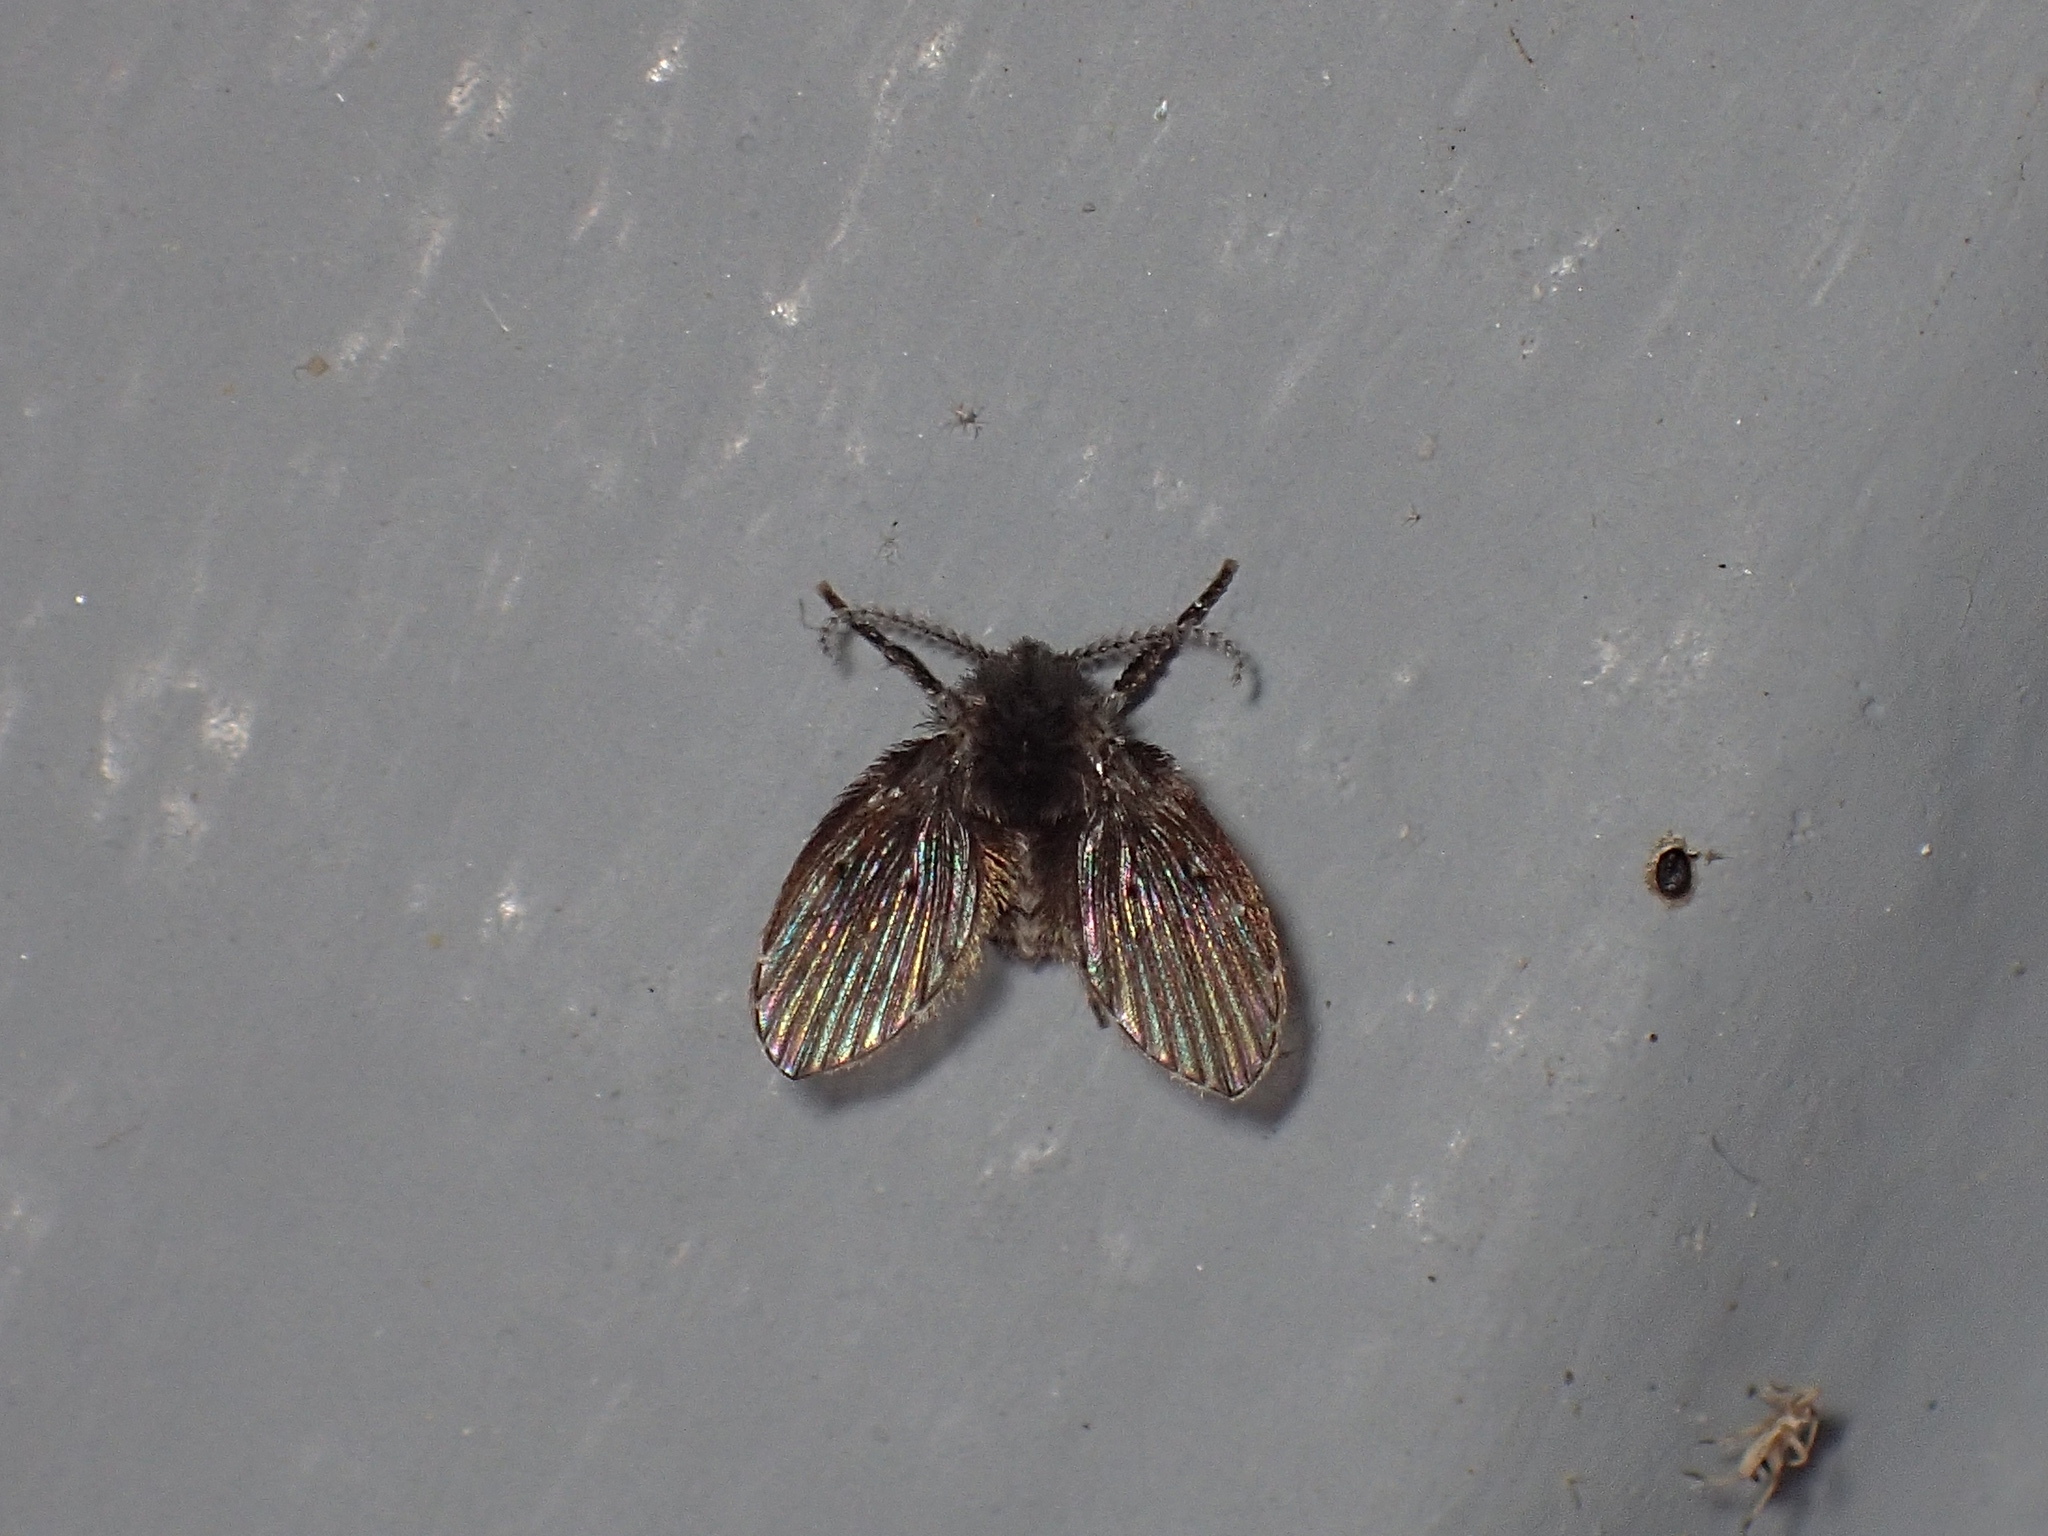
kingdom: Animalia
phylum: Arthropoda
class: Insecta
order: Diptera
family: Psychodidae
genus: Clogmia
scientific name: Clogmia albipunctatus
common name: White-spotted moth fly
